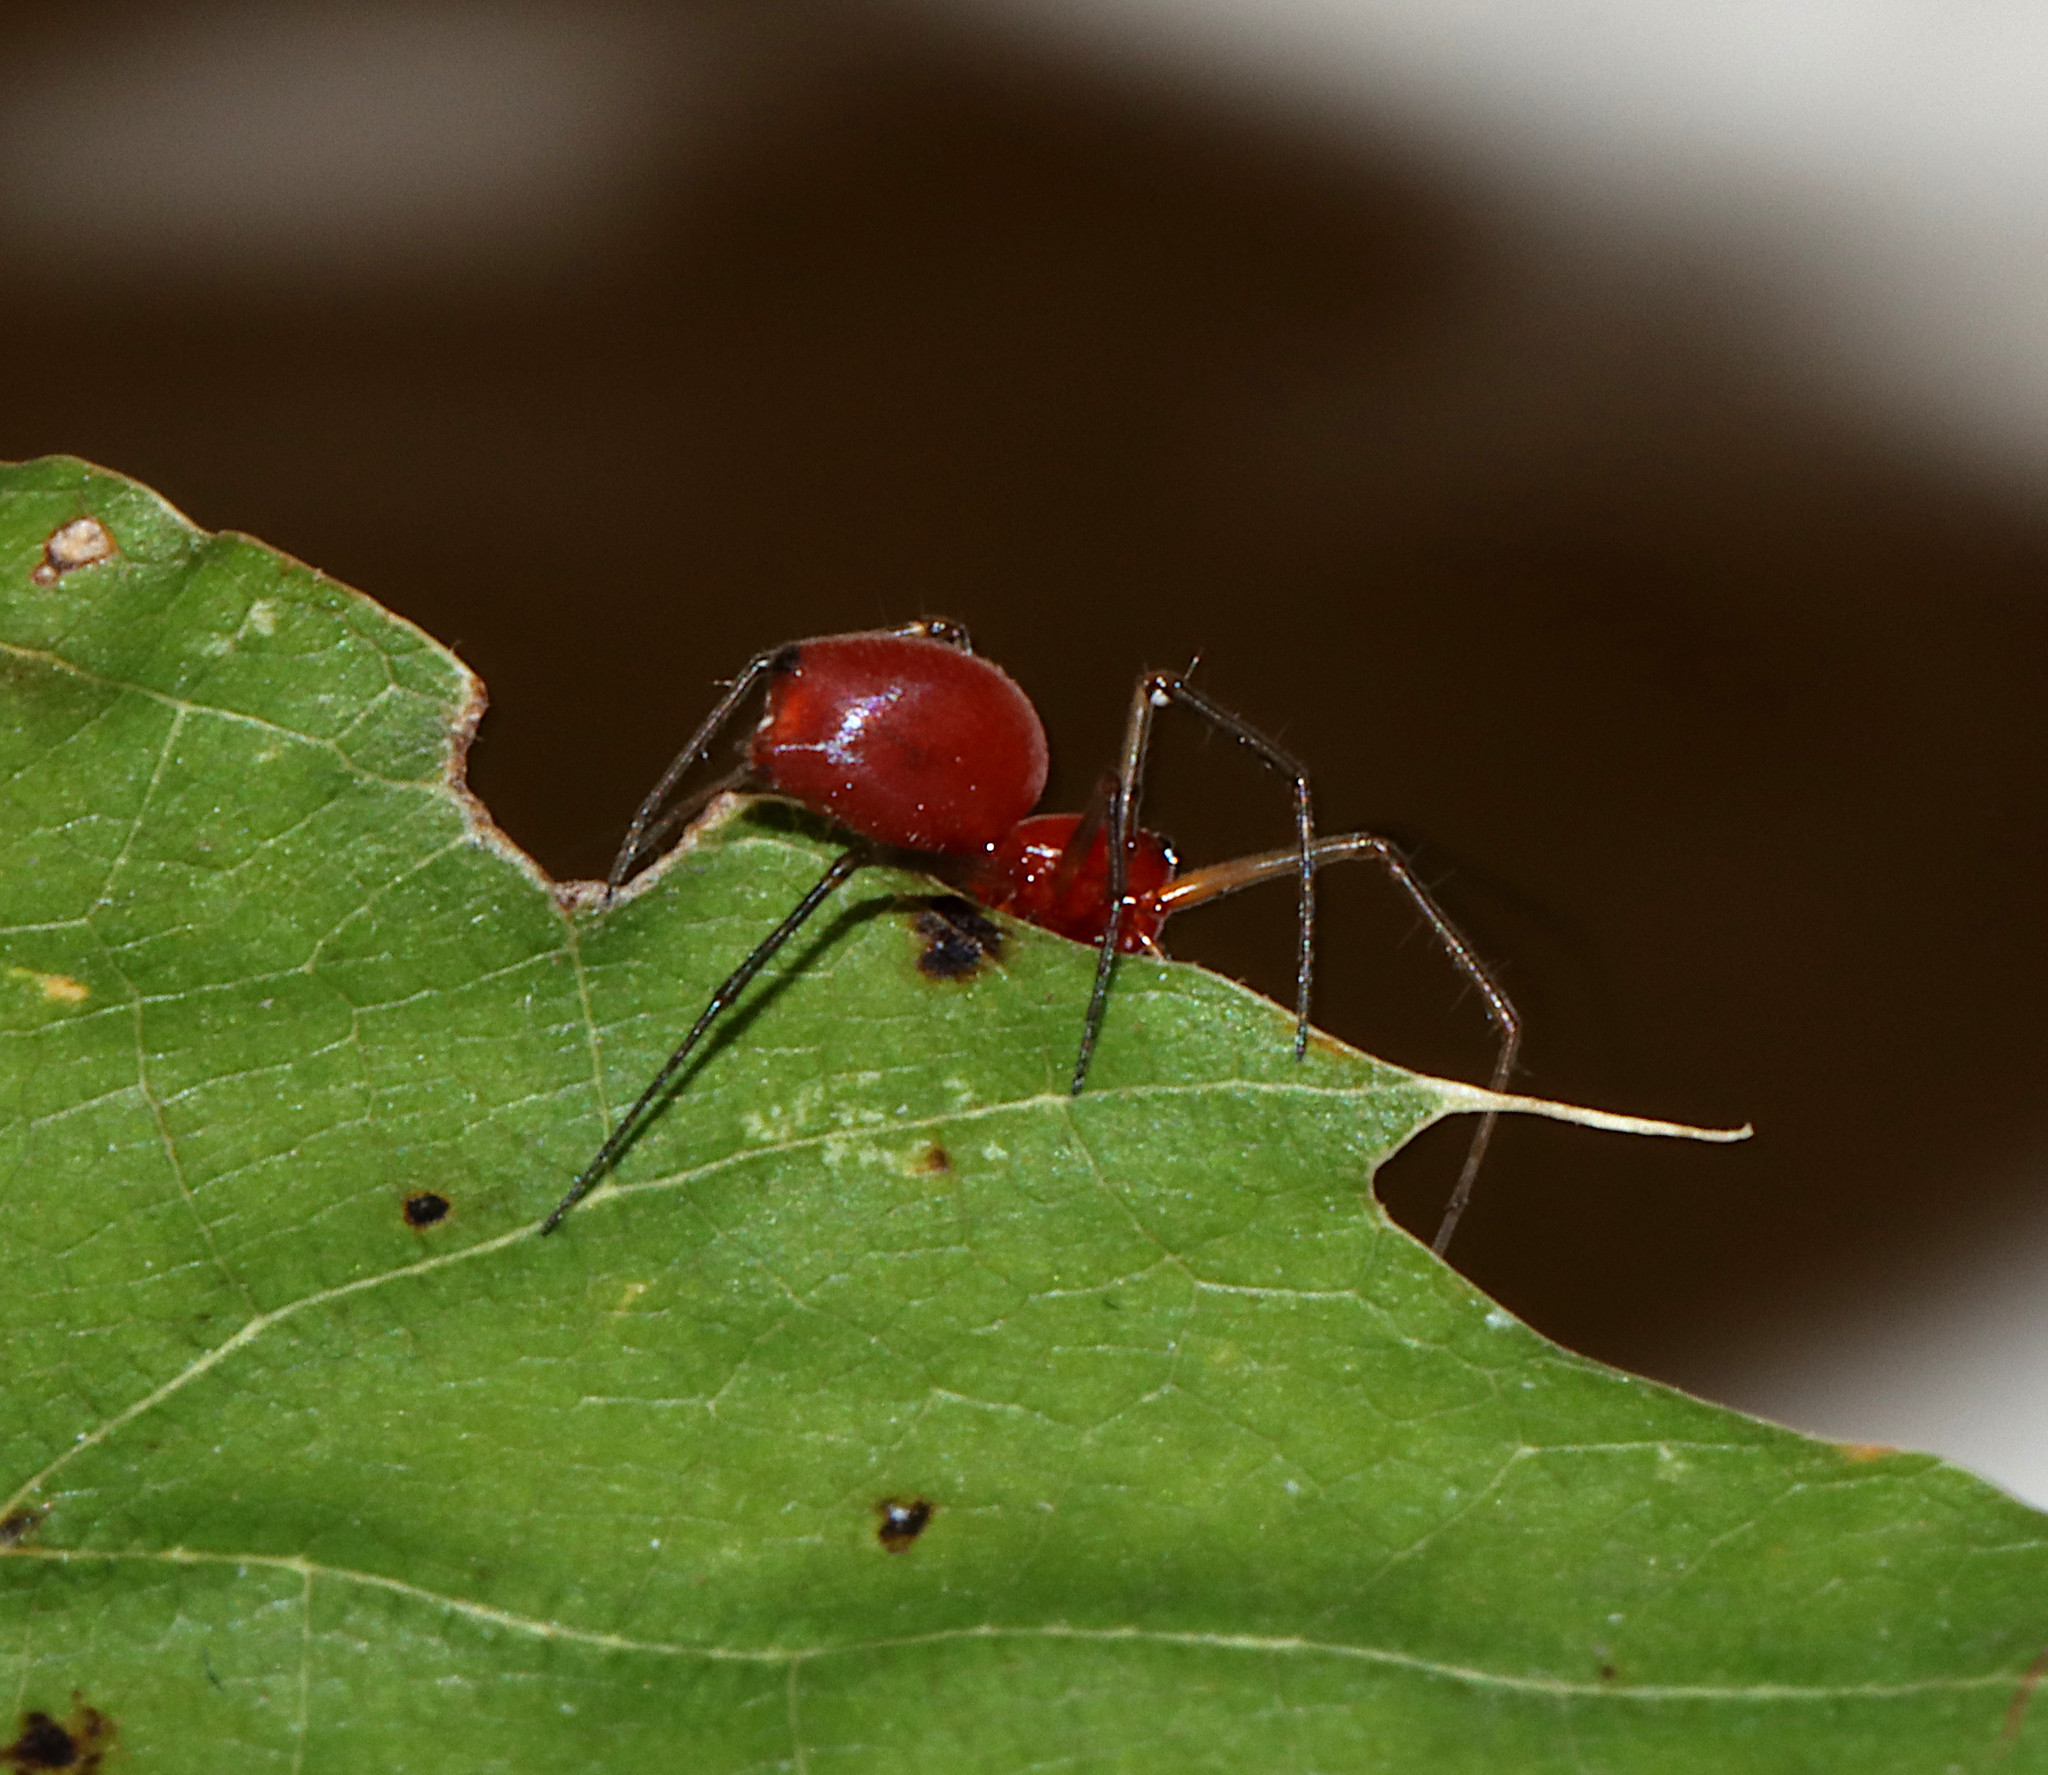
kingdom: Animalia
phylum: Arthropoda
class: Arachnida
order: Araneae
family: Linyphiidae
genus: Florinda
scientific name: Florinda coccinea
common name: Black-tailed red sheetweaver
